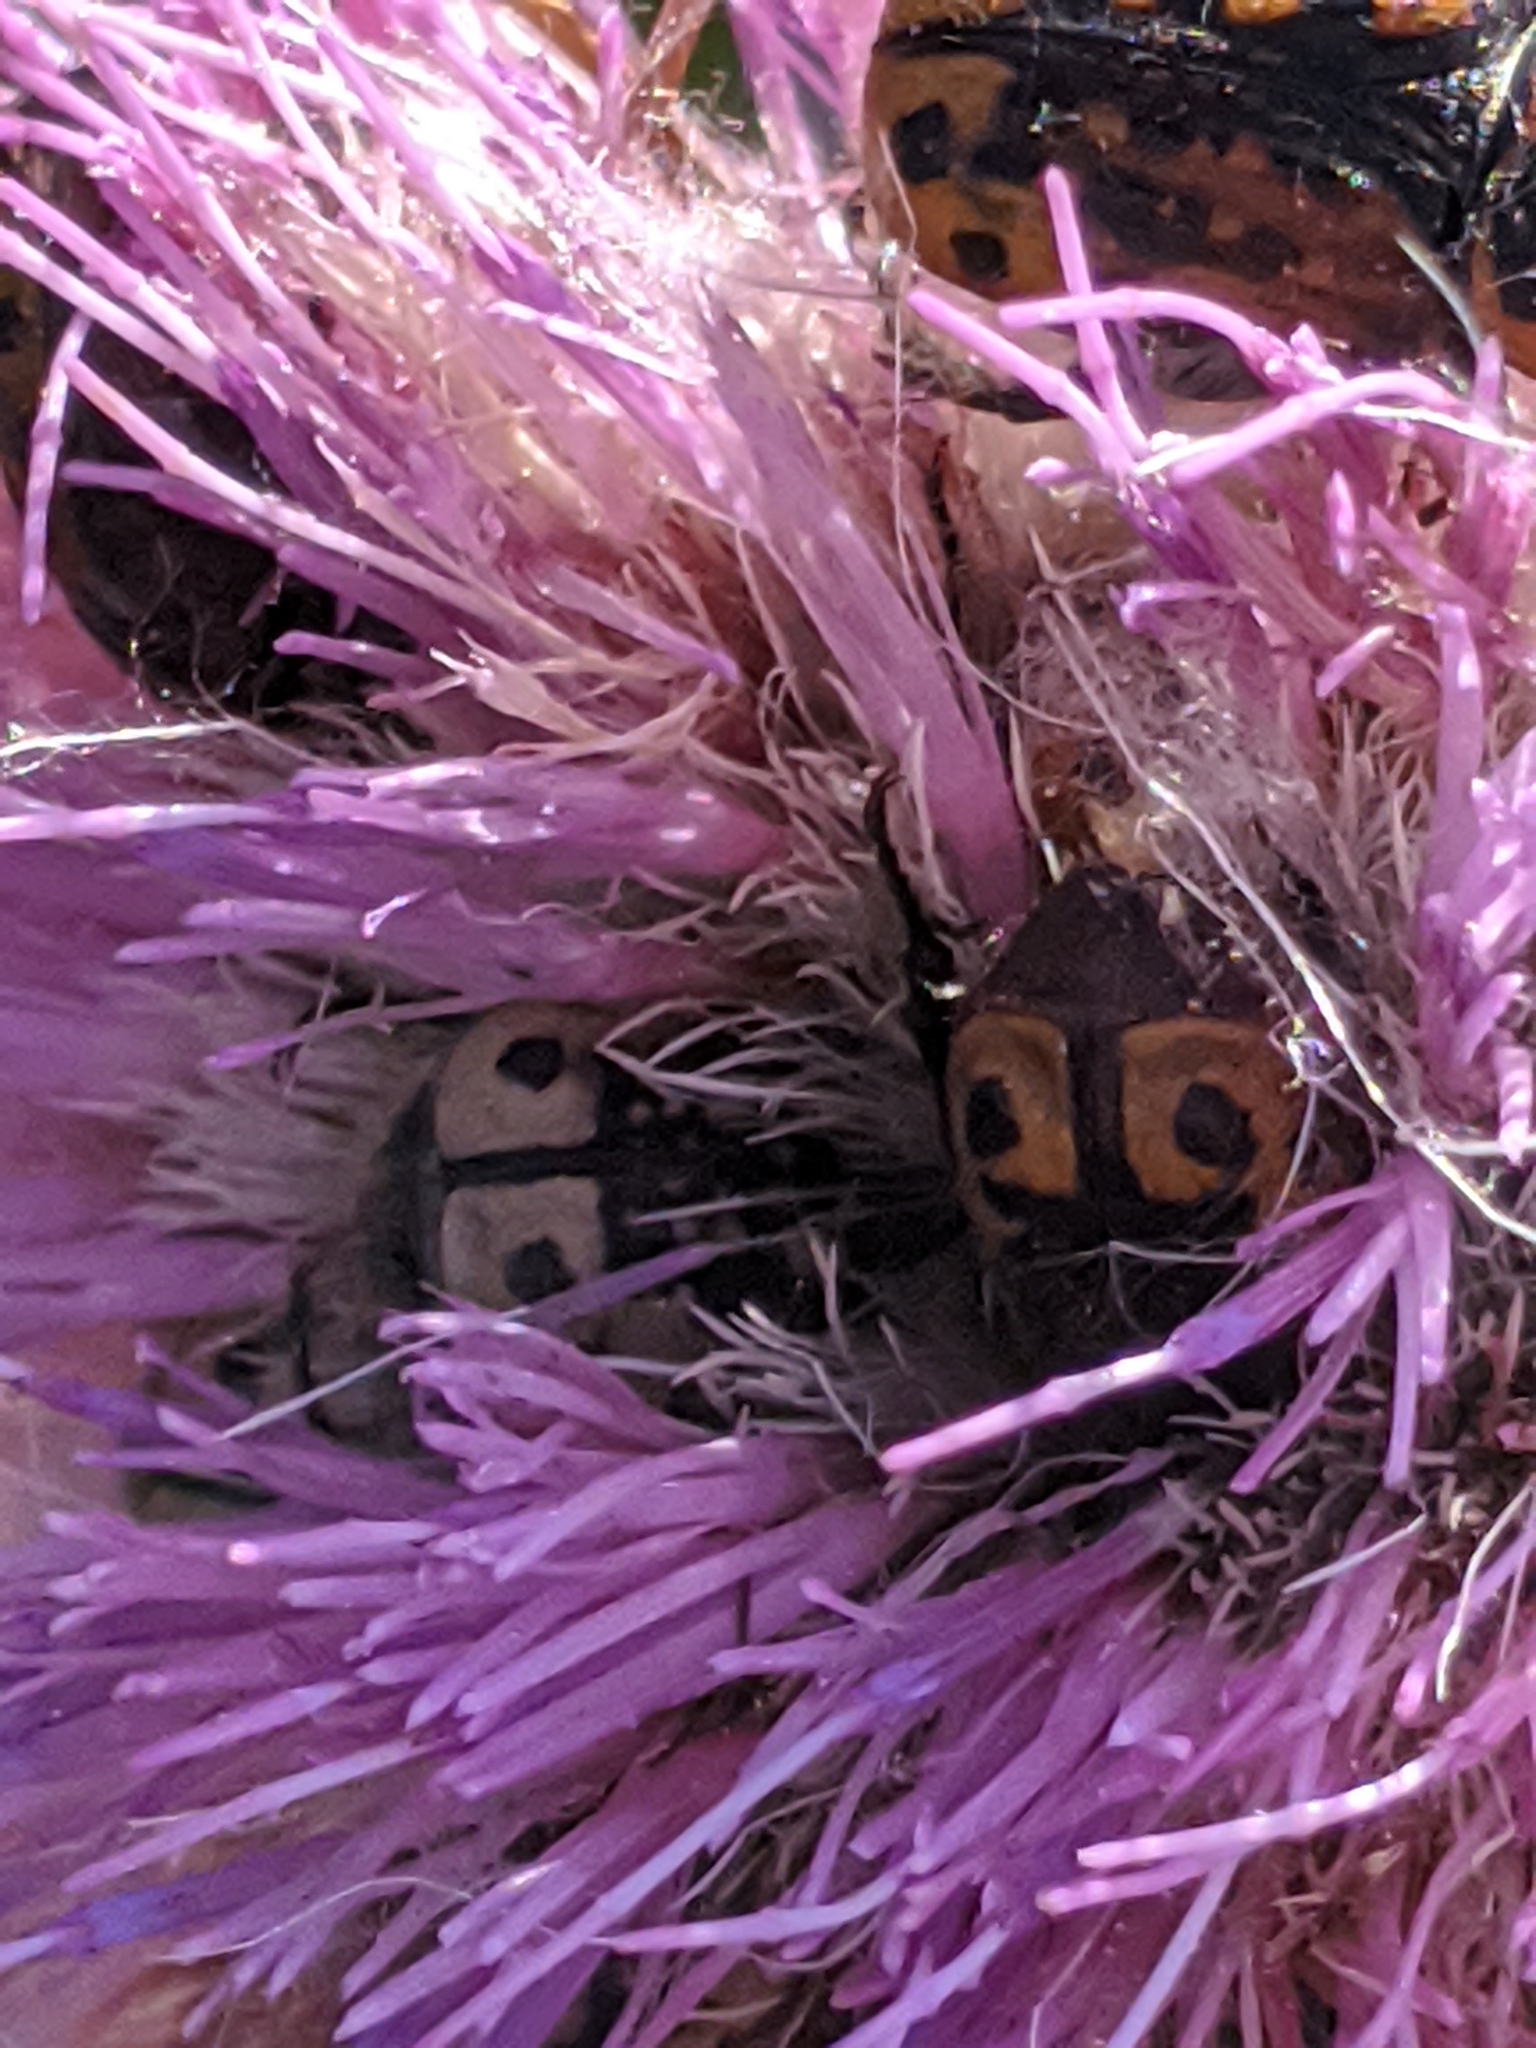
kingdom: Animalia
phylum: Arthropoda
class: Insecta
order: Coleoptera
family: Scarabaeidae
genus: Euphoria
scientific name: Euphoria kernii
